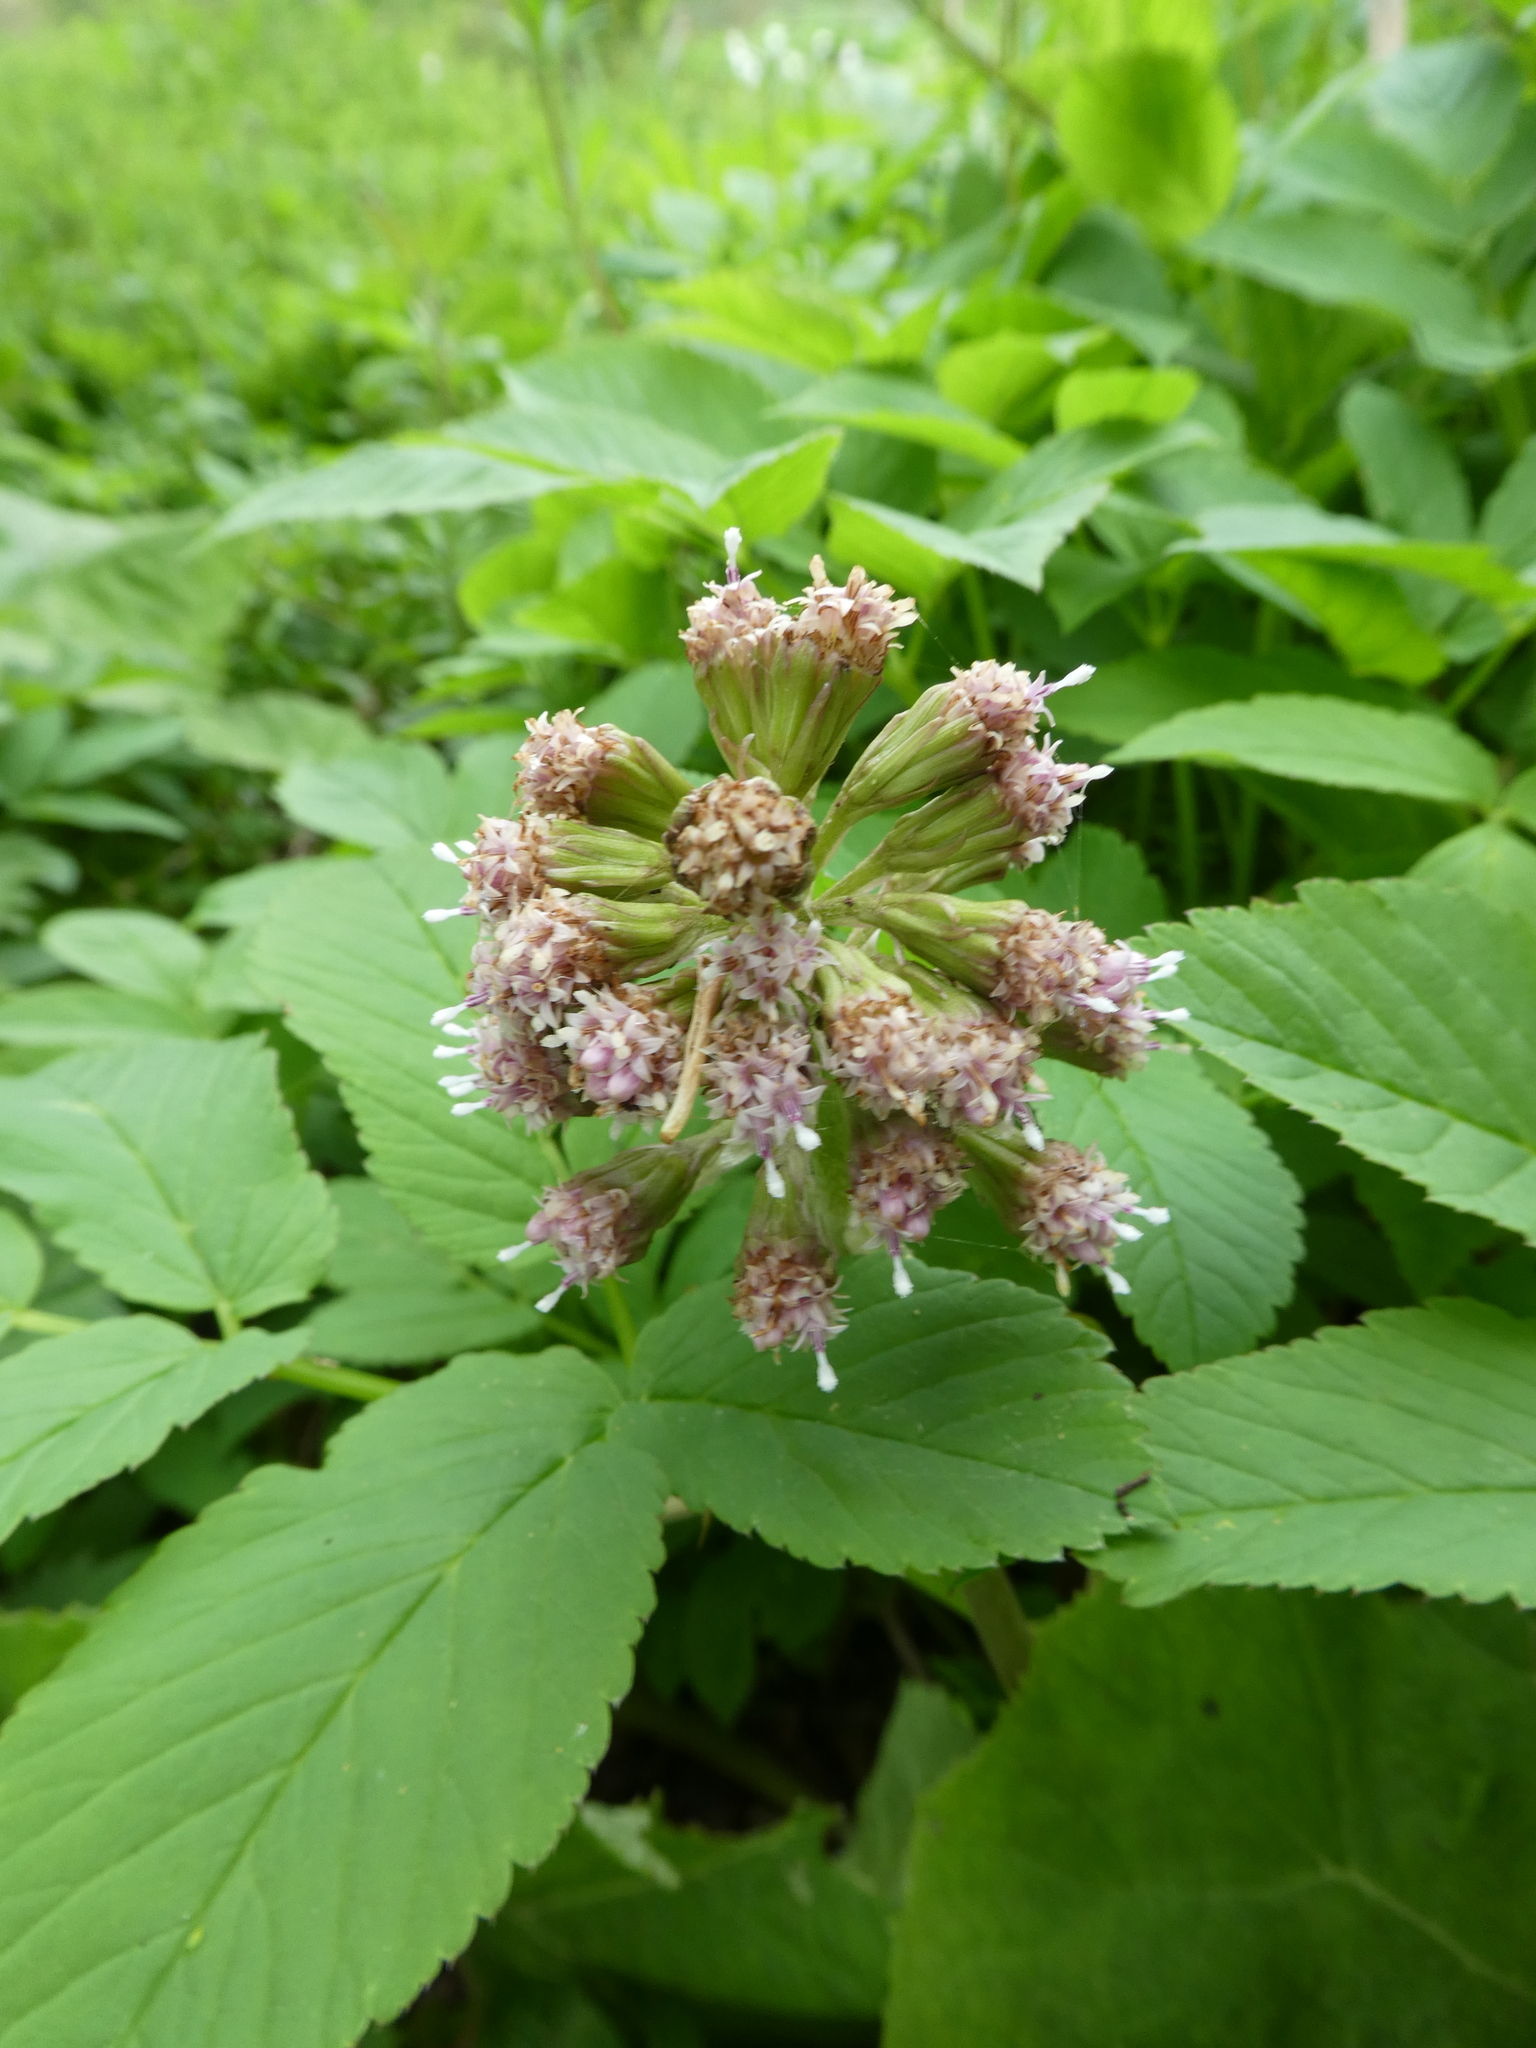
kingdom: Plantae
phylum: Tracheophyta
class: Magnoliopsida
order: Asterales
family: Asteraceae
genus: Petasites
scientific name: Petasites hybridus
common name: Butterbur
